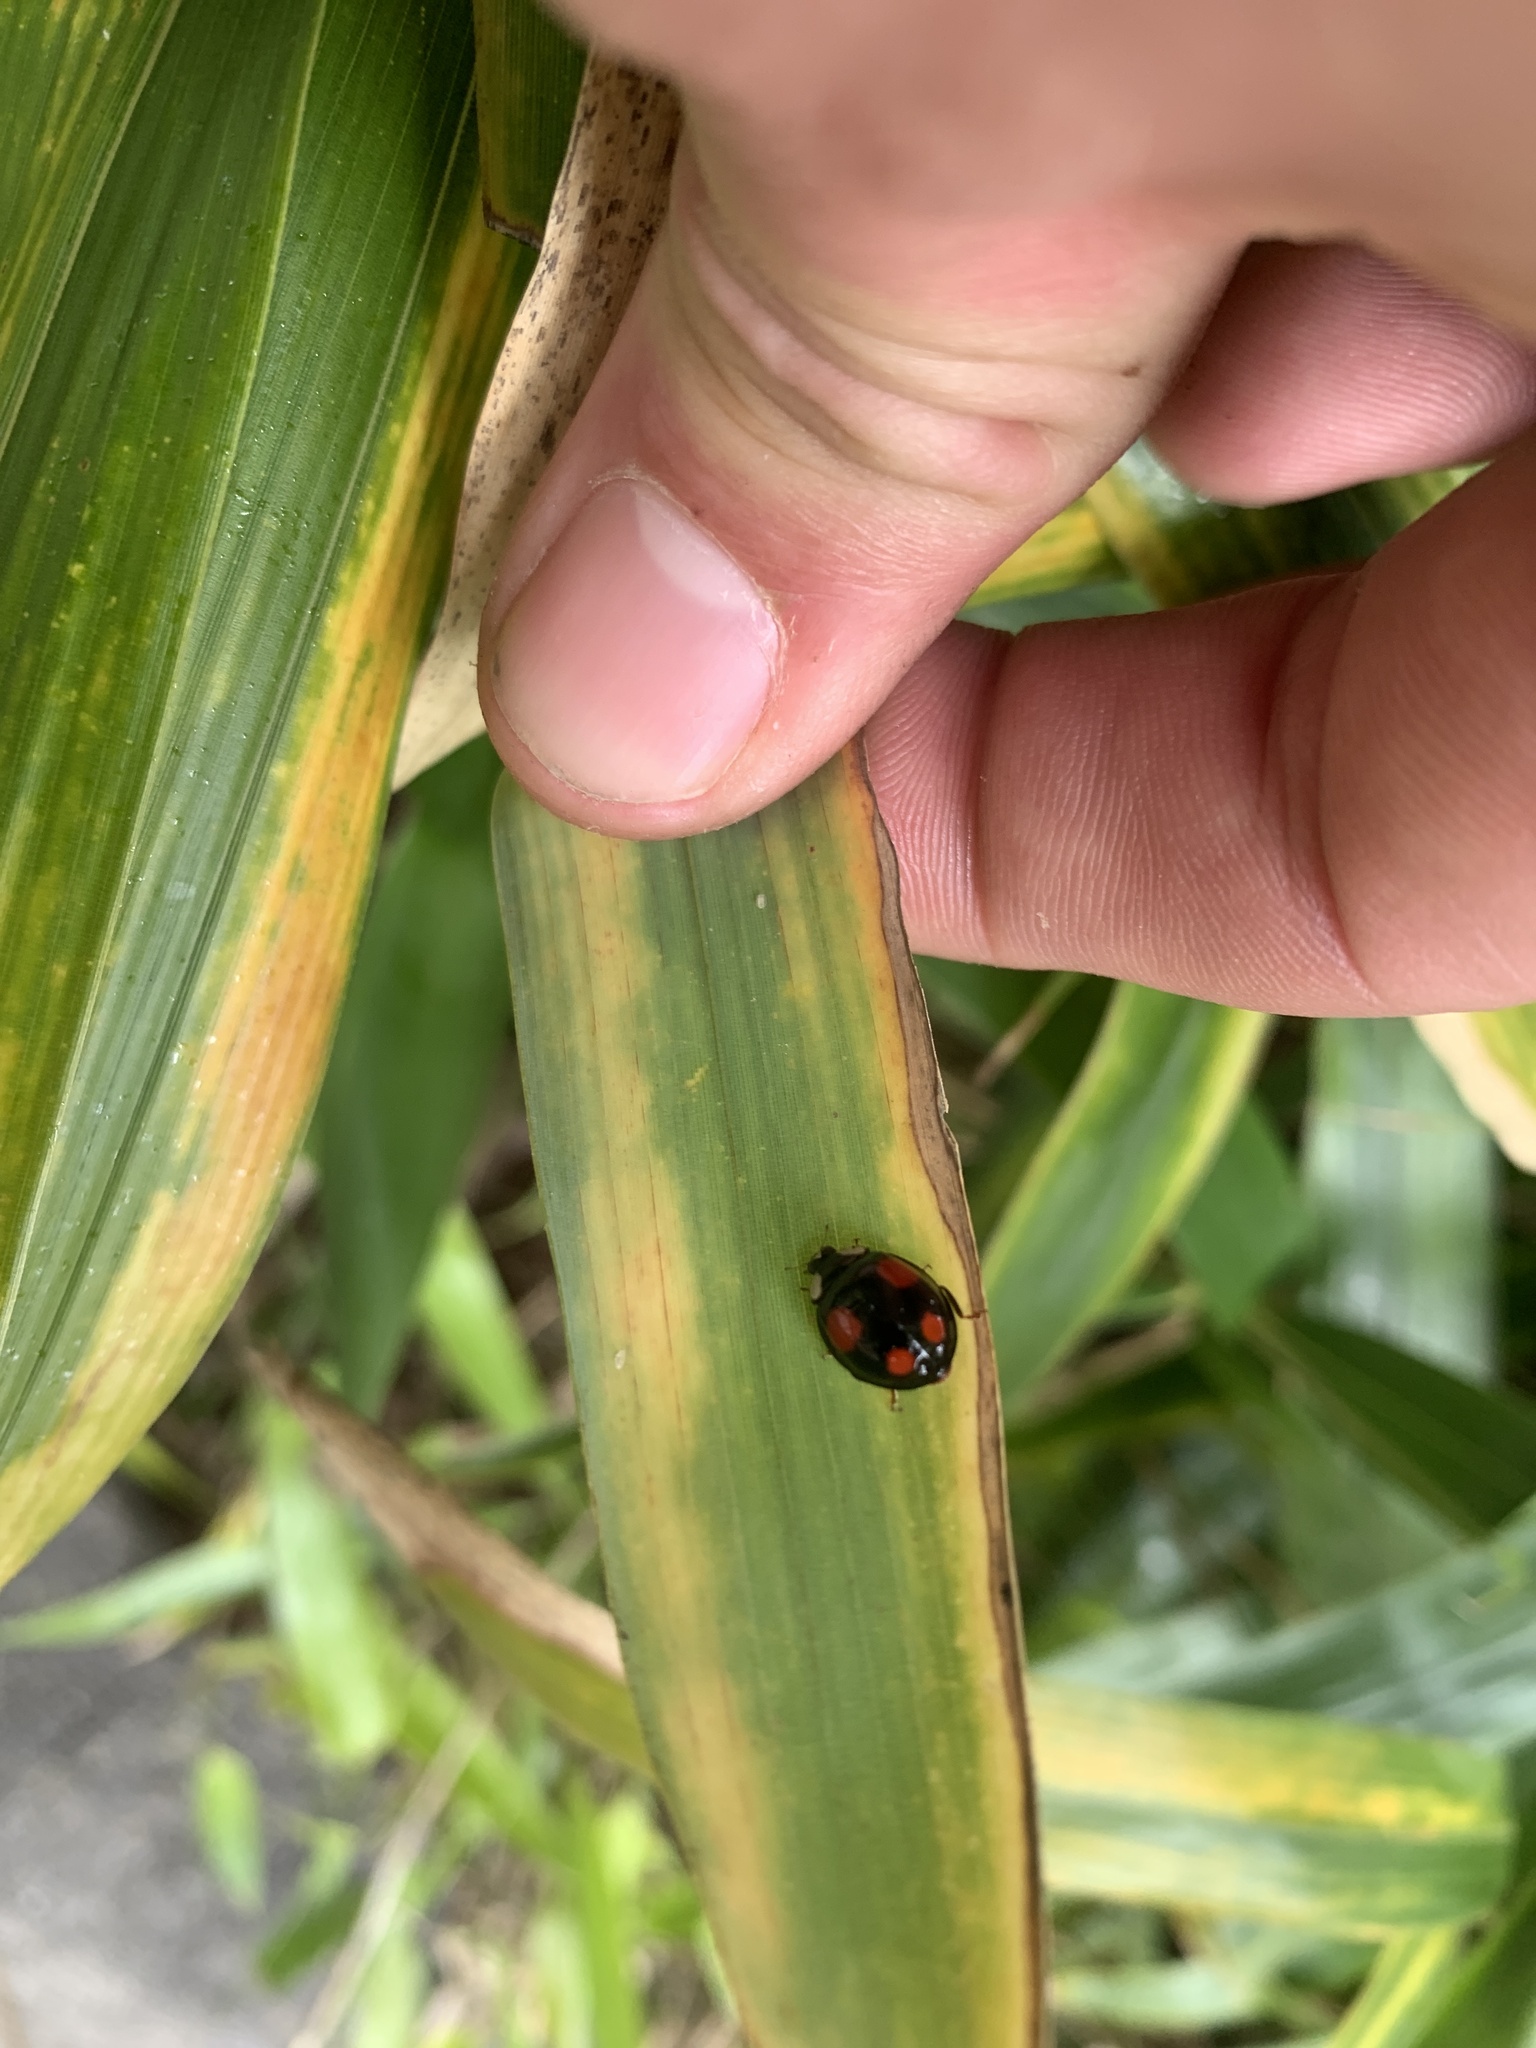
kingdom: Animalia
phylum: Arthropoda
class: Insecta
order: Coleoptera
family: Coccinellidae
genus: Harmonia
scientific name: Harmonia axyridis
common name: Harlequin ladybird
